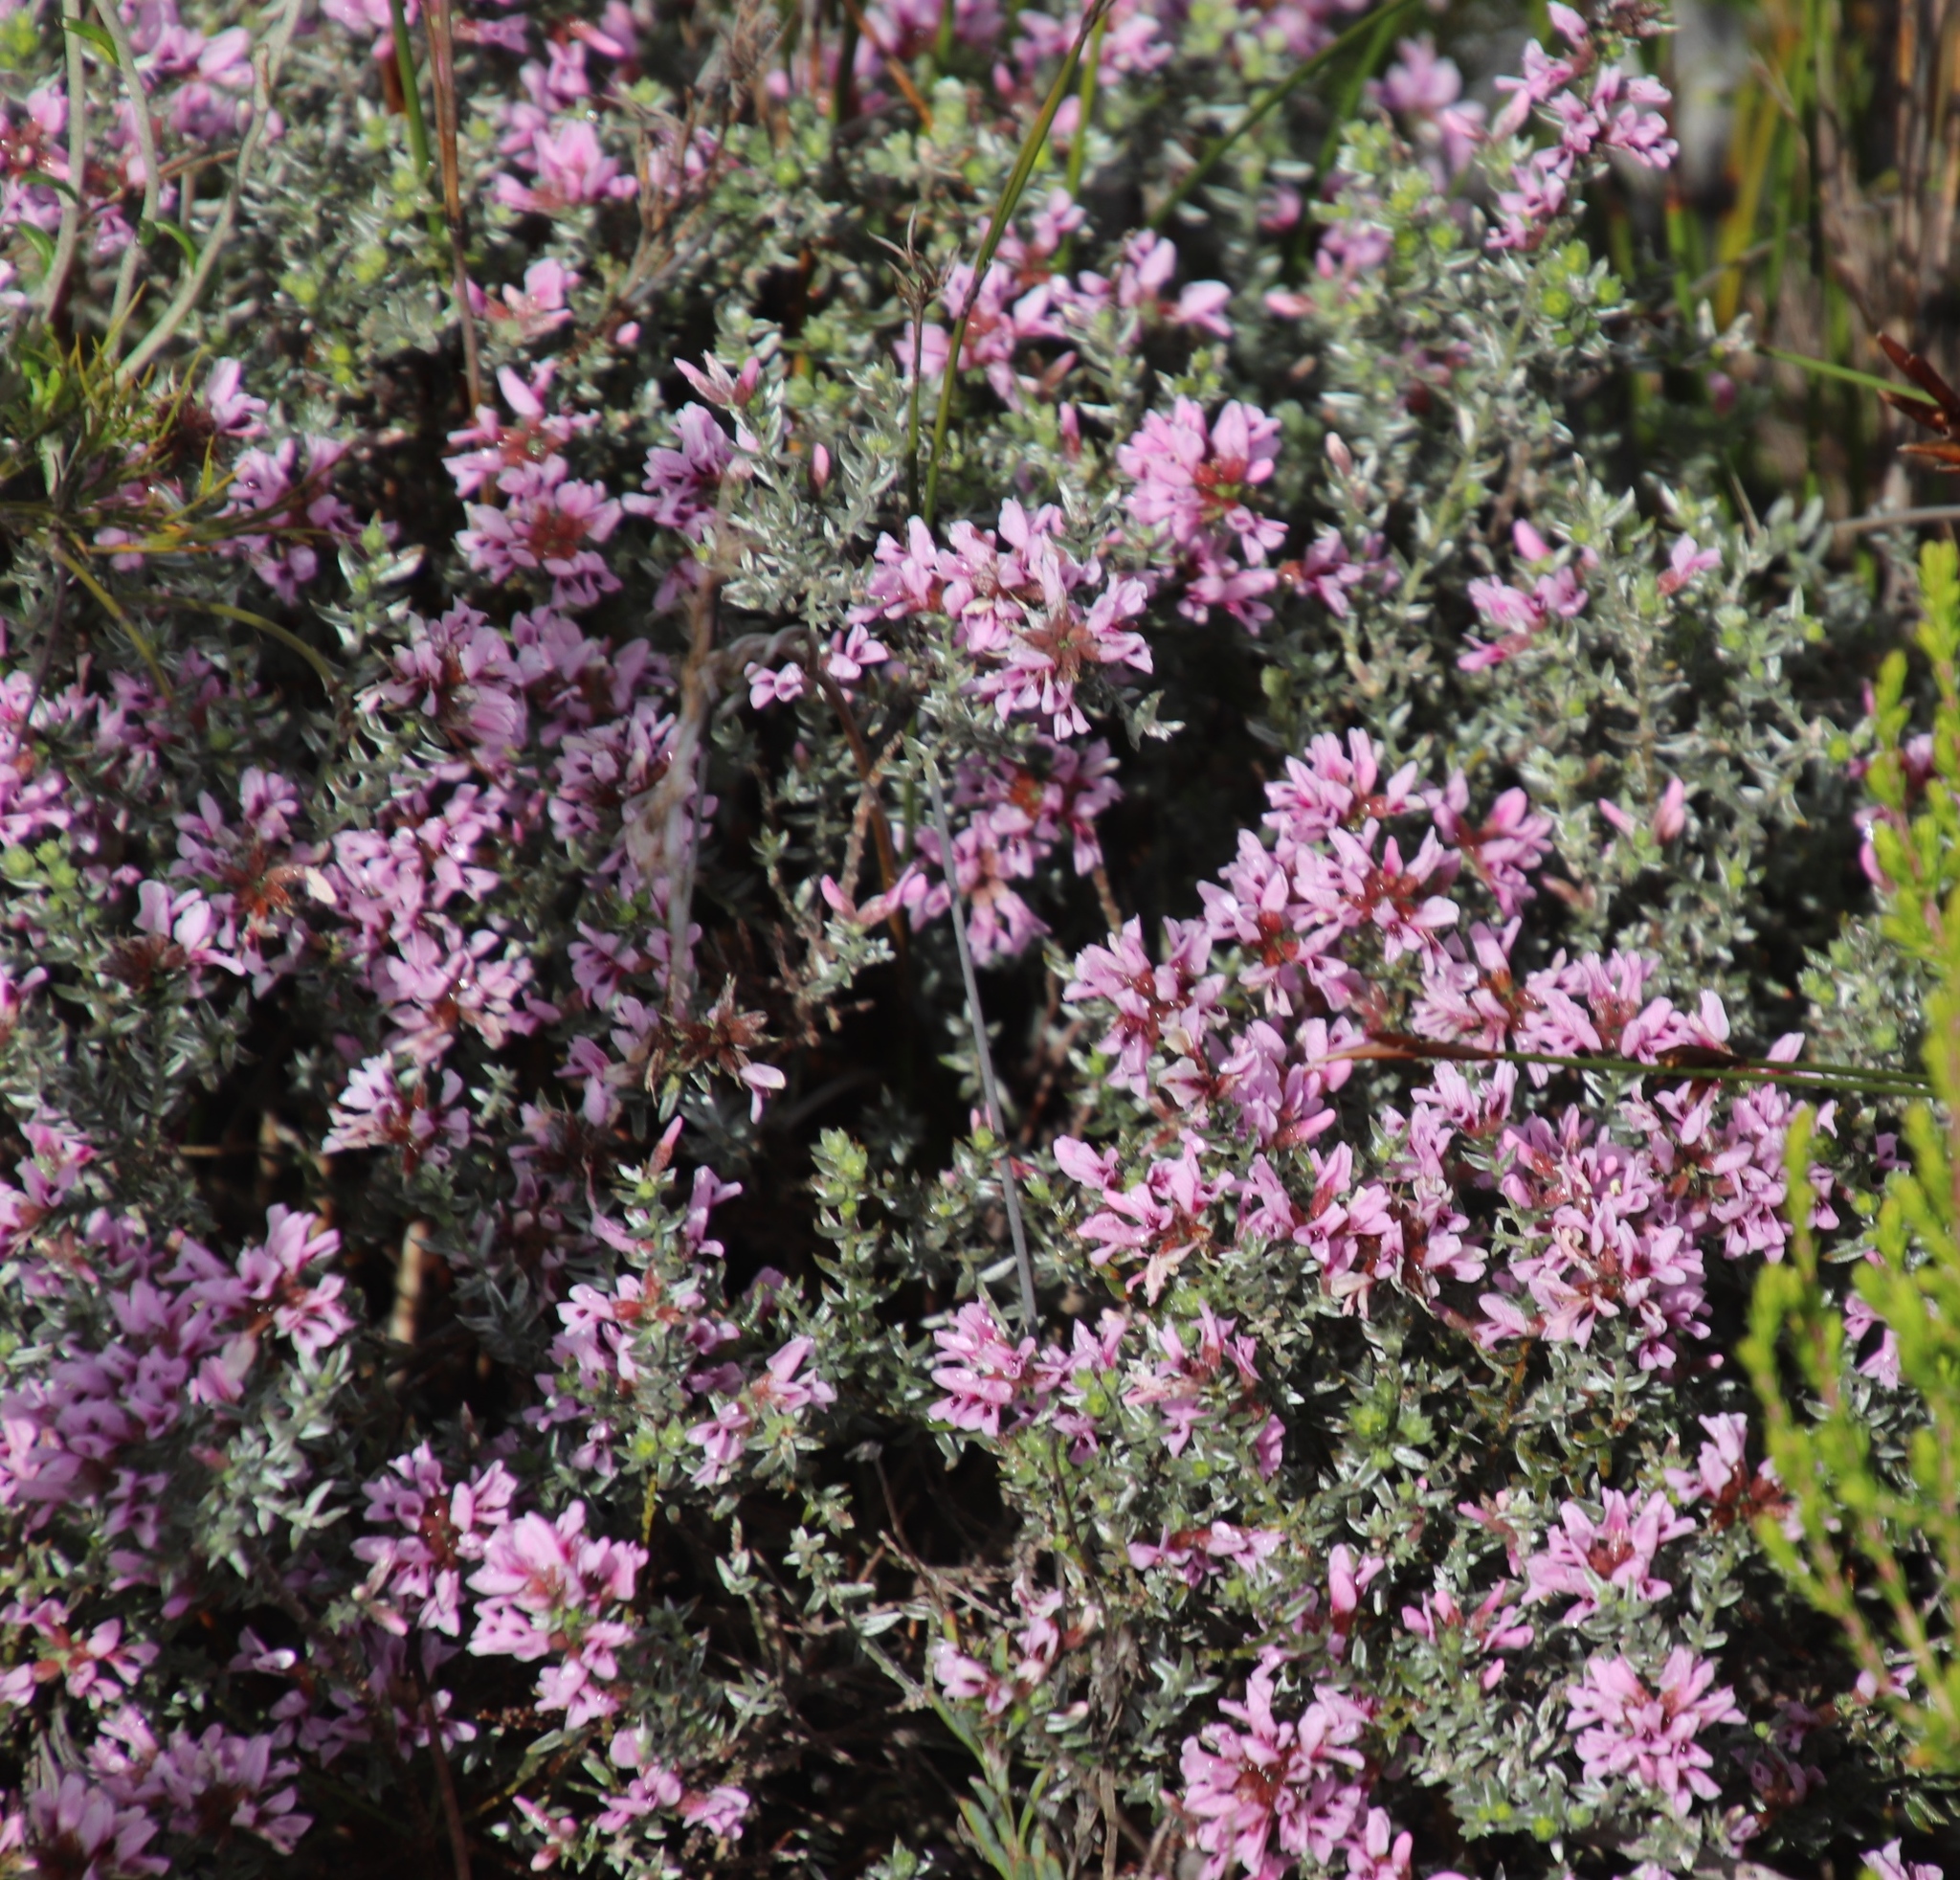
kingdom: Plantae
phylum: Tracheophyta
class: Magnoliopsida
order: Fabales
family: Fabaceae
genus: Amphithalea
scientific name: Amphithalea ericifolia
